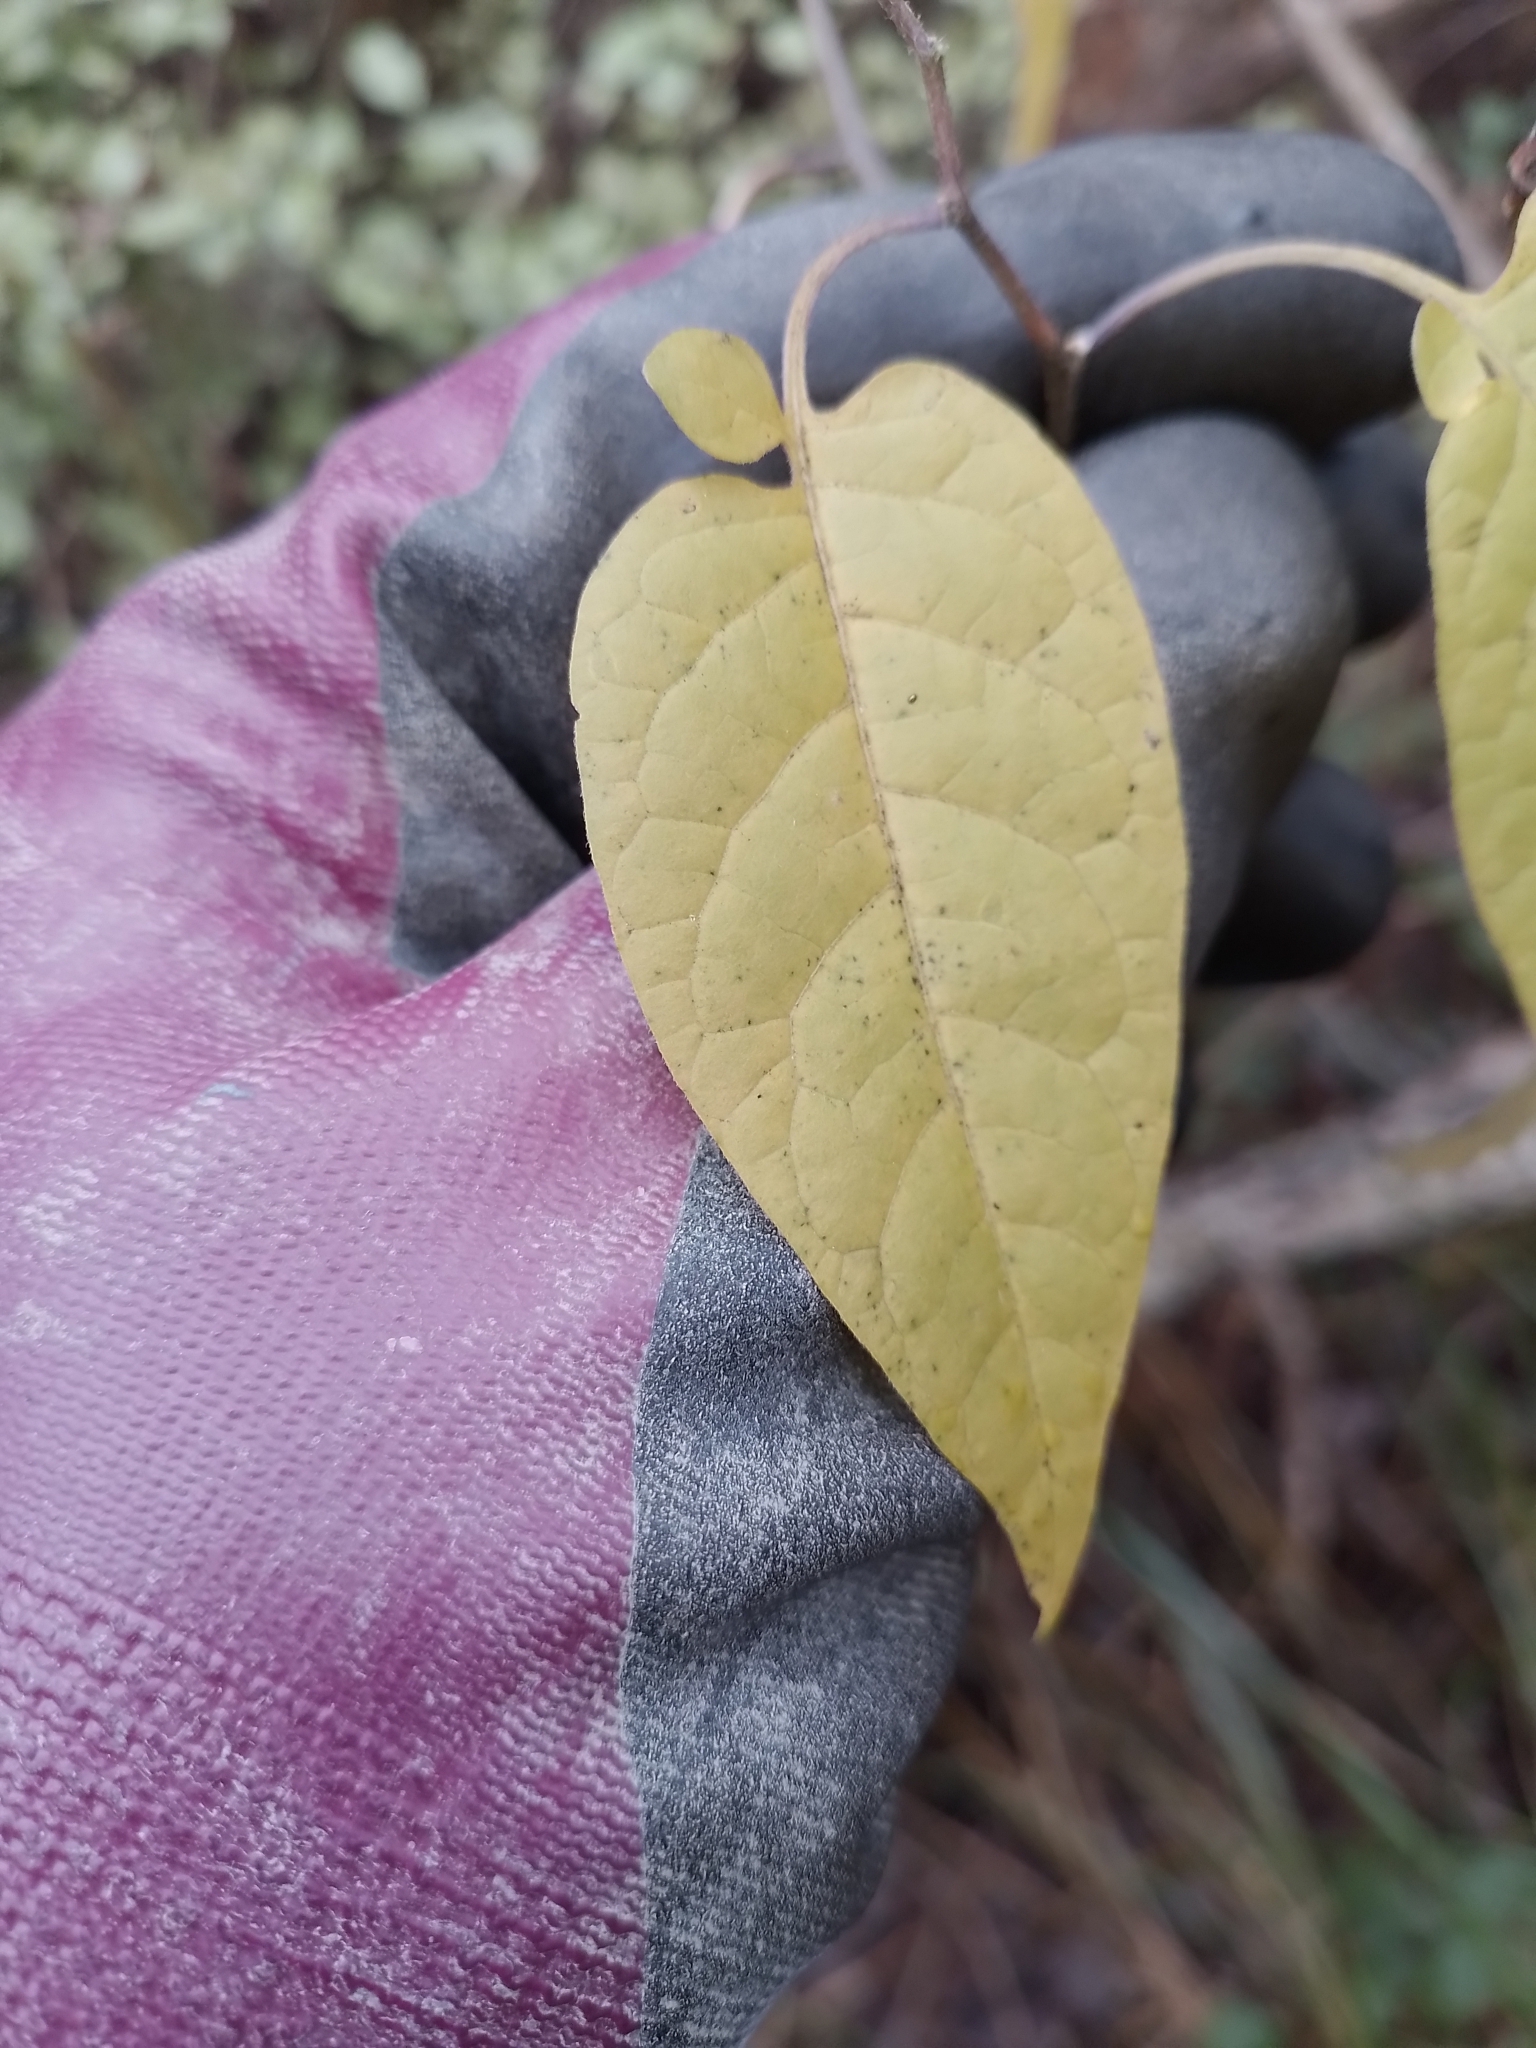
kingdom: Plantae
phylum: Tracheophyta
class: Magnoliopsida
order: Solanales
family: Solanaceae
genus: Solanum
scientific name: Solanum dulcamara
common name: Climbing nightshade
